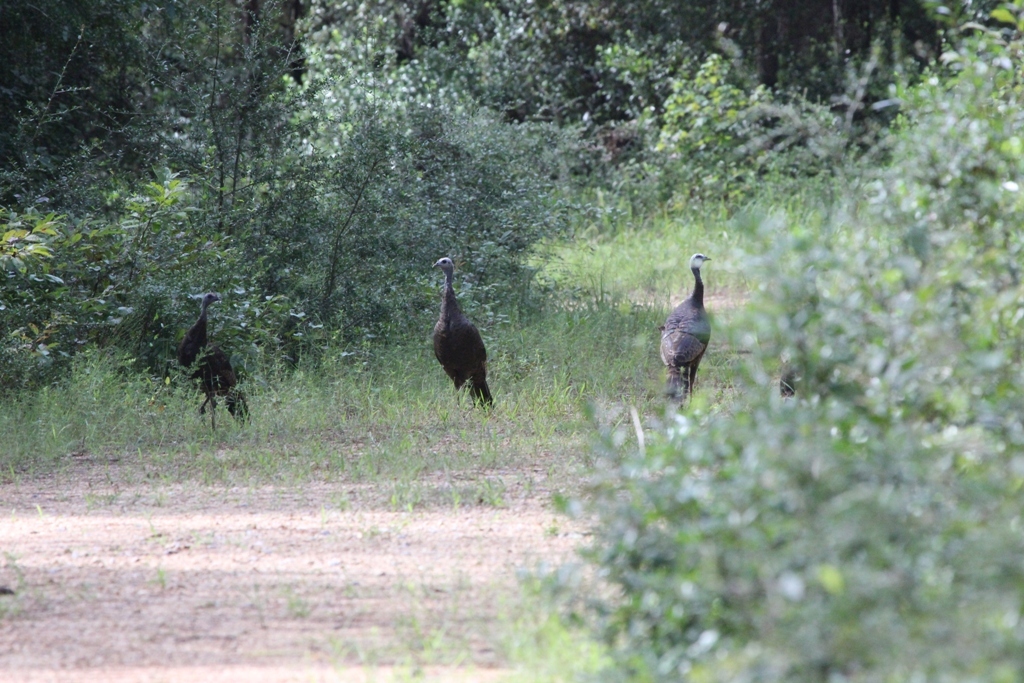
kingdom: Animalia
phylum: Chordata
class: Aves
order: Galliformes
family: Phasianidae
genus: Meleagris
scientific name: Meleagris gallopavo
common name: Wild turkey
